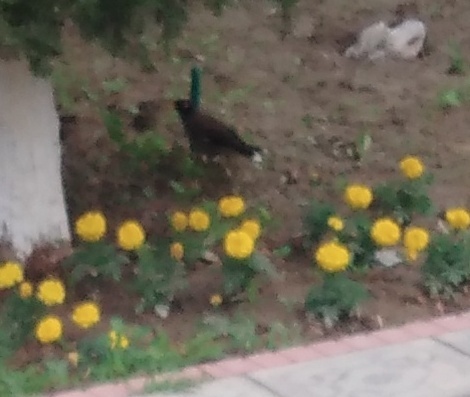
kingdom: Animalia
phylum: Chordata
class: Aves
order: Passeriformes
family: Sturnidae
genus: Acridotheres
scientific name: Acridotheres tristis
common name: Common myna
